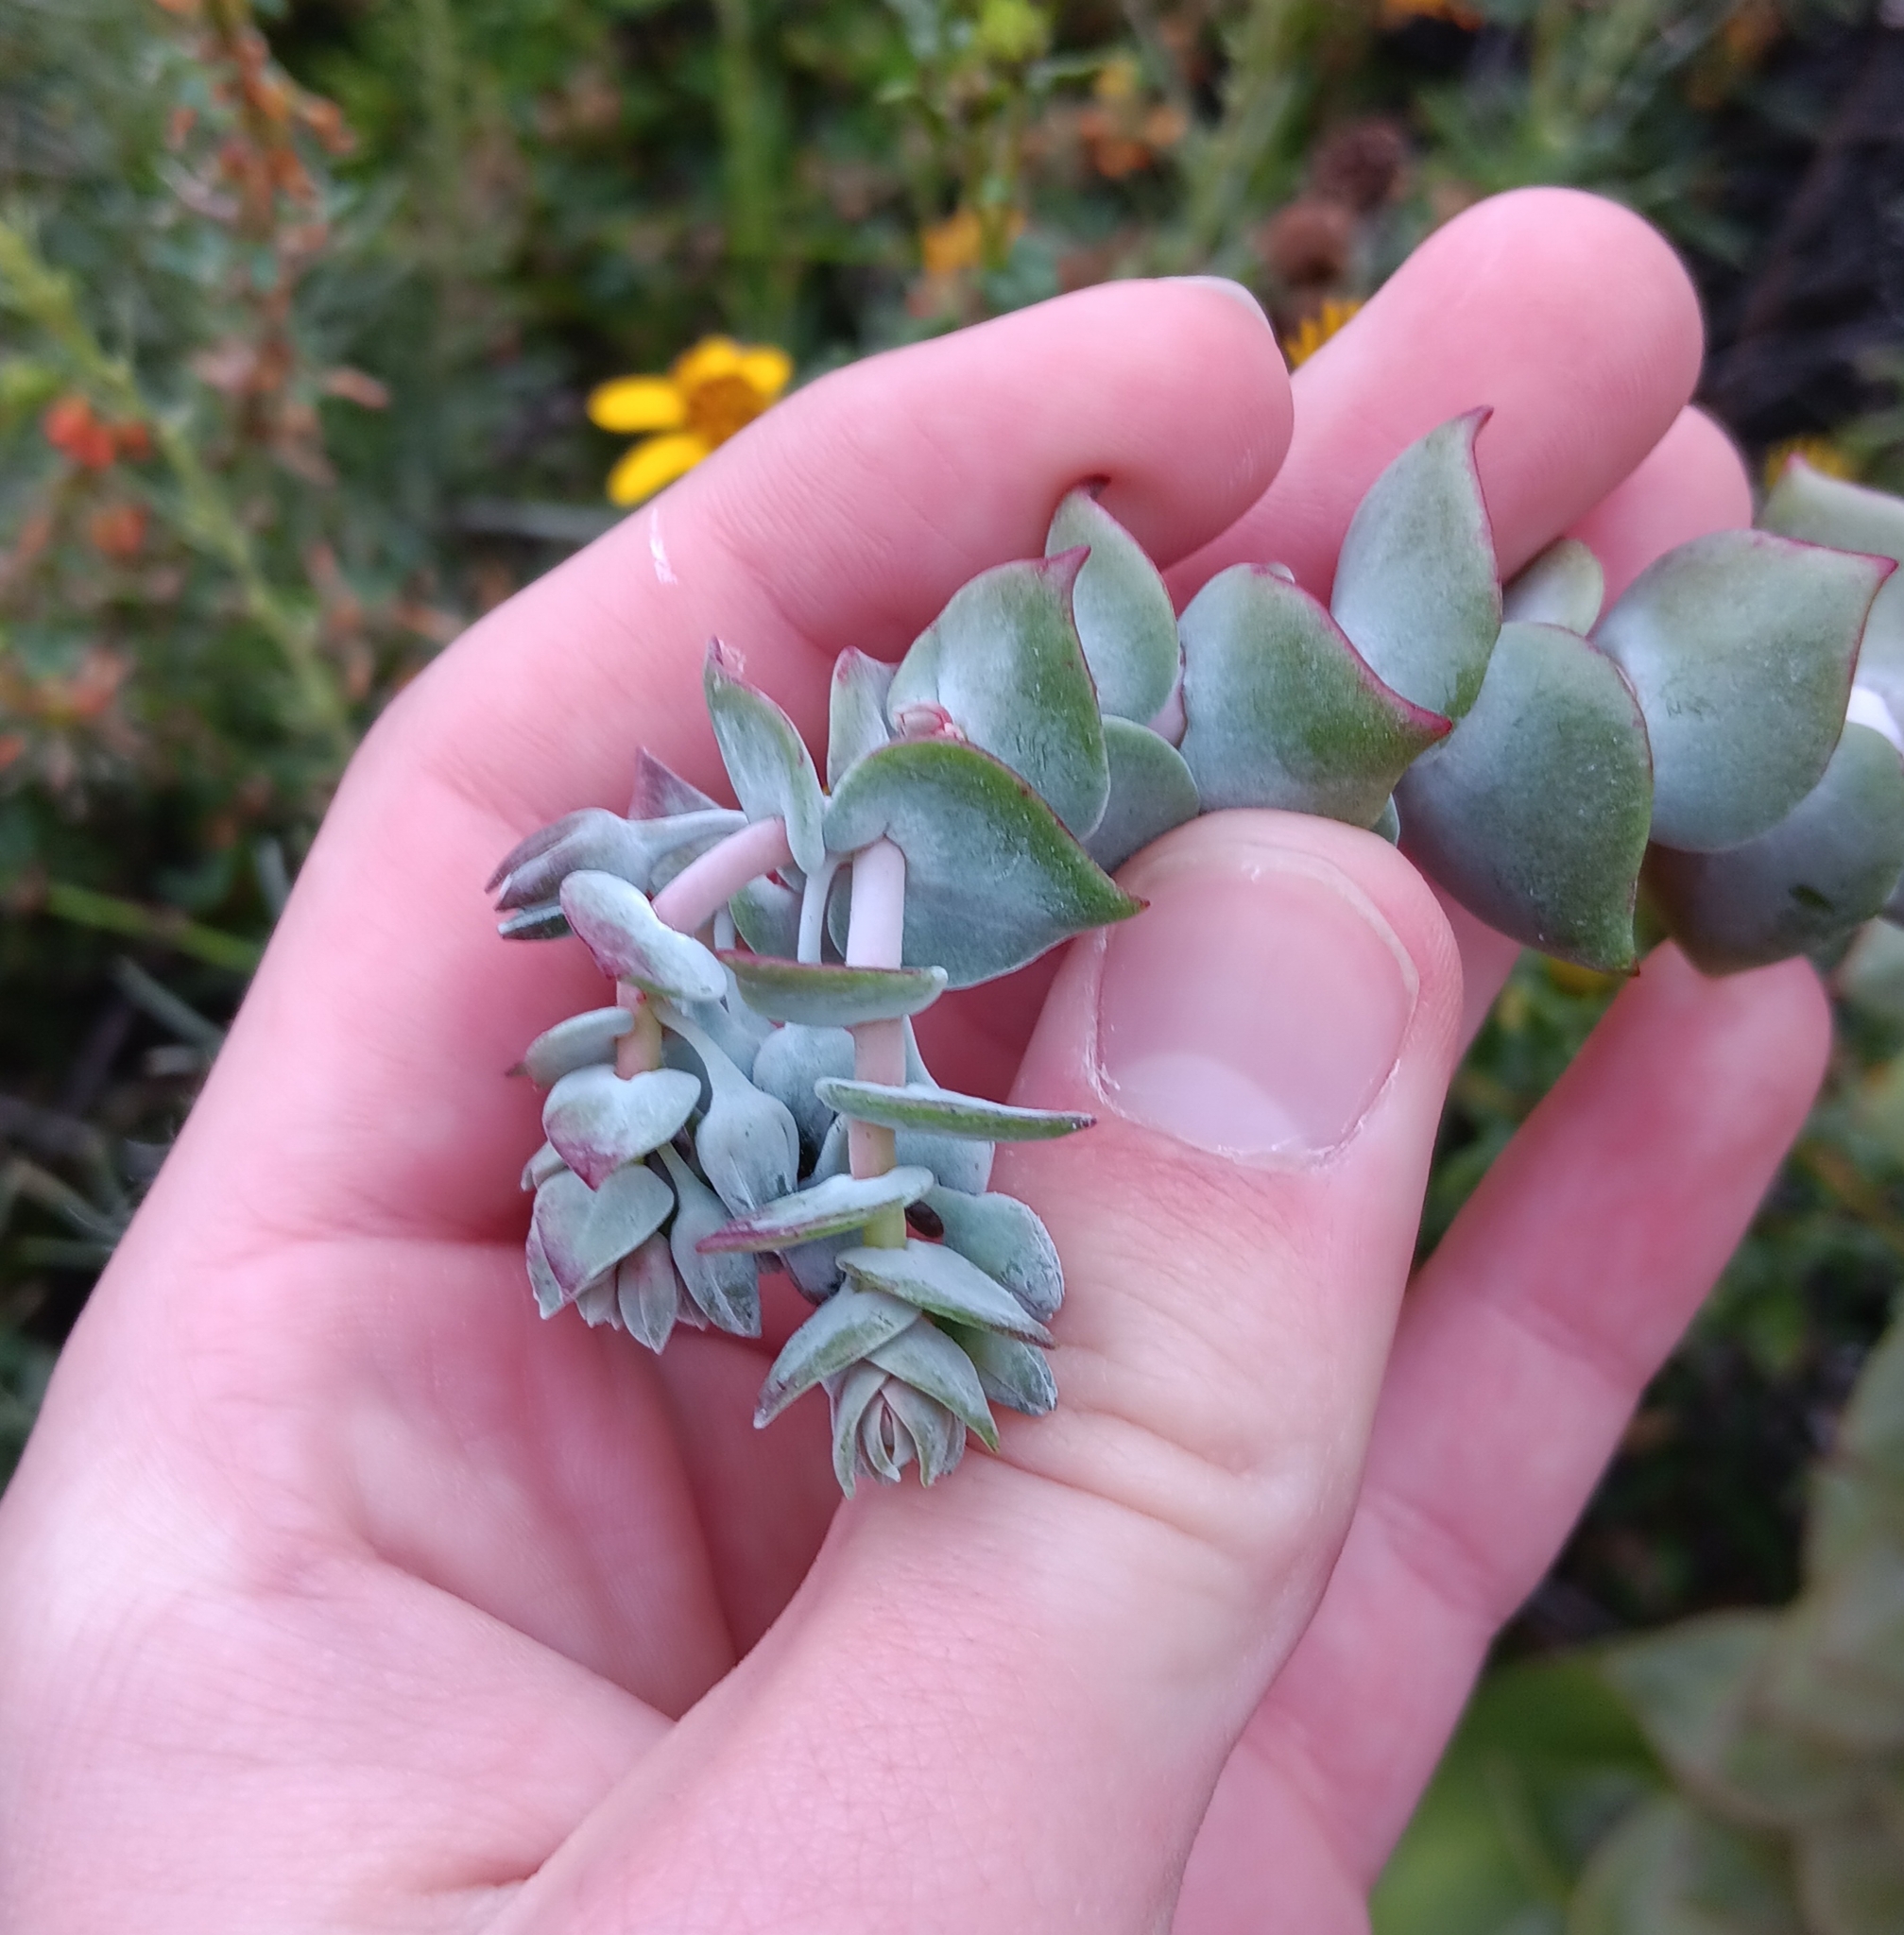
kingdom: Plantae
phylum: Tracheophyta
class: Magnoliopsida
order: Saxifragales
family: Crassulaceae
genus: Dudleya
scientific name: Dudleya pulverulenta
